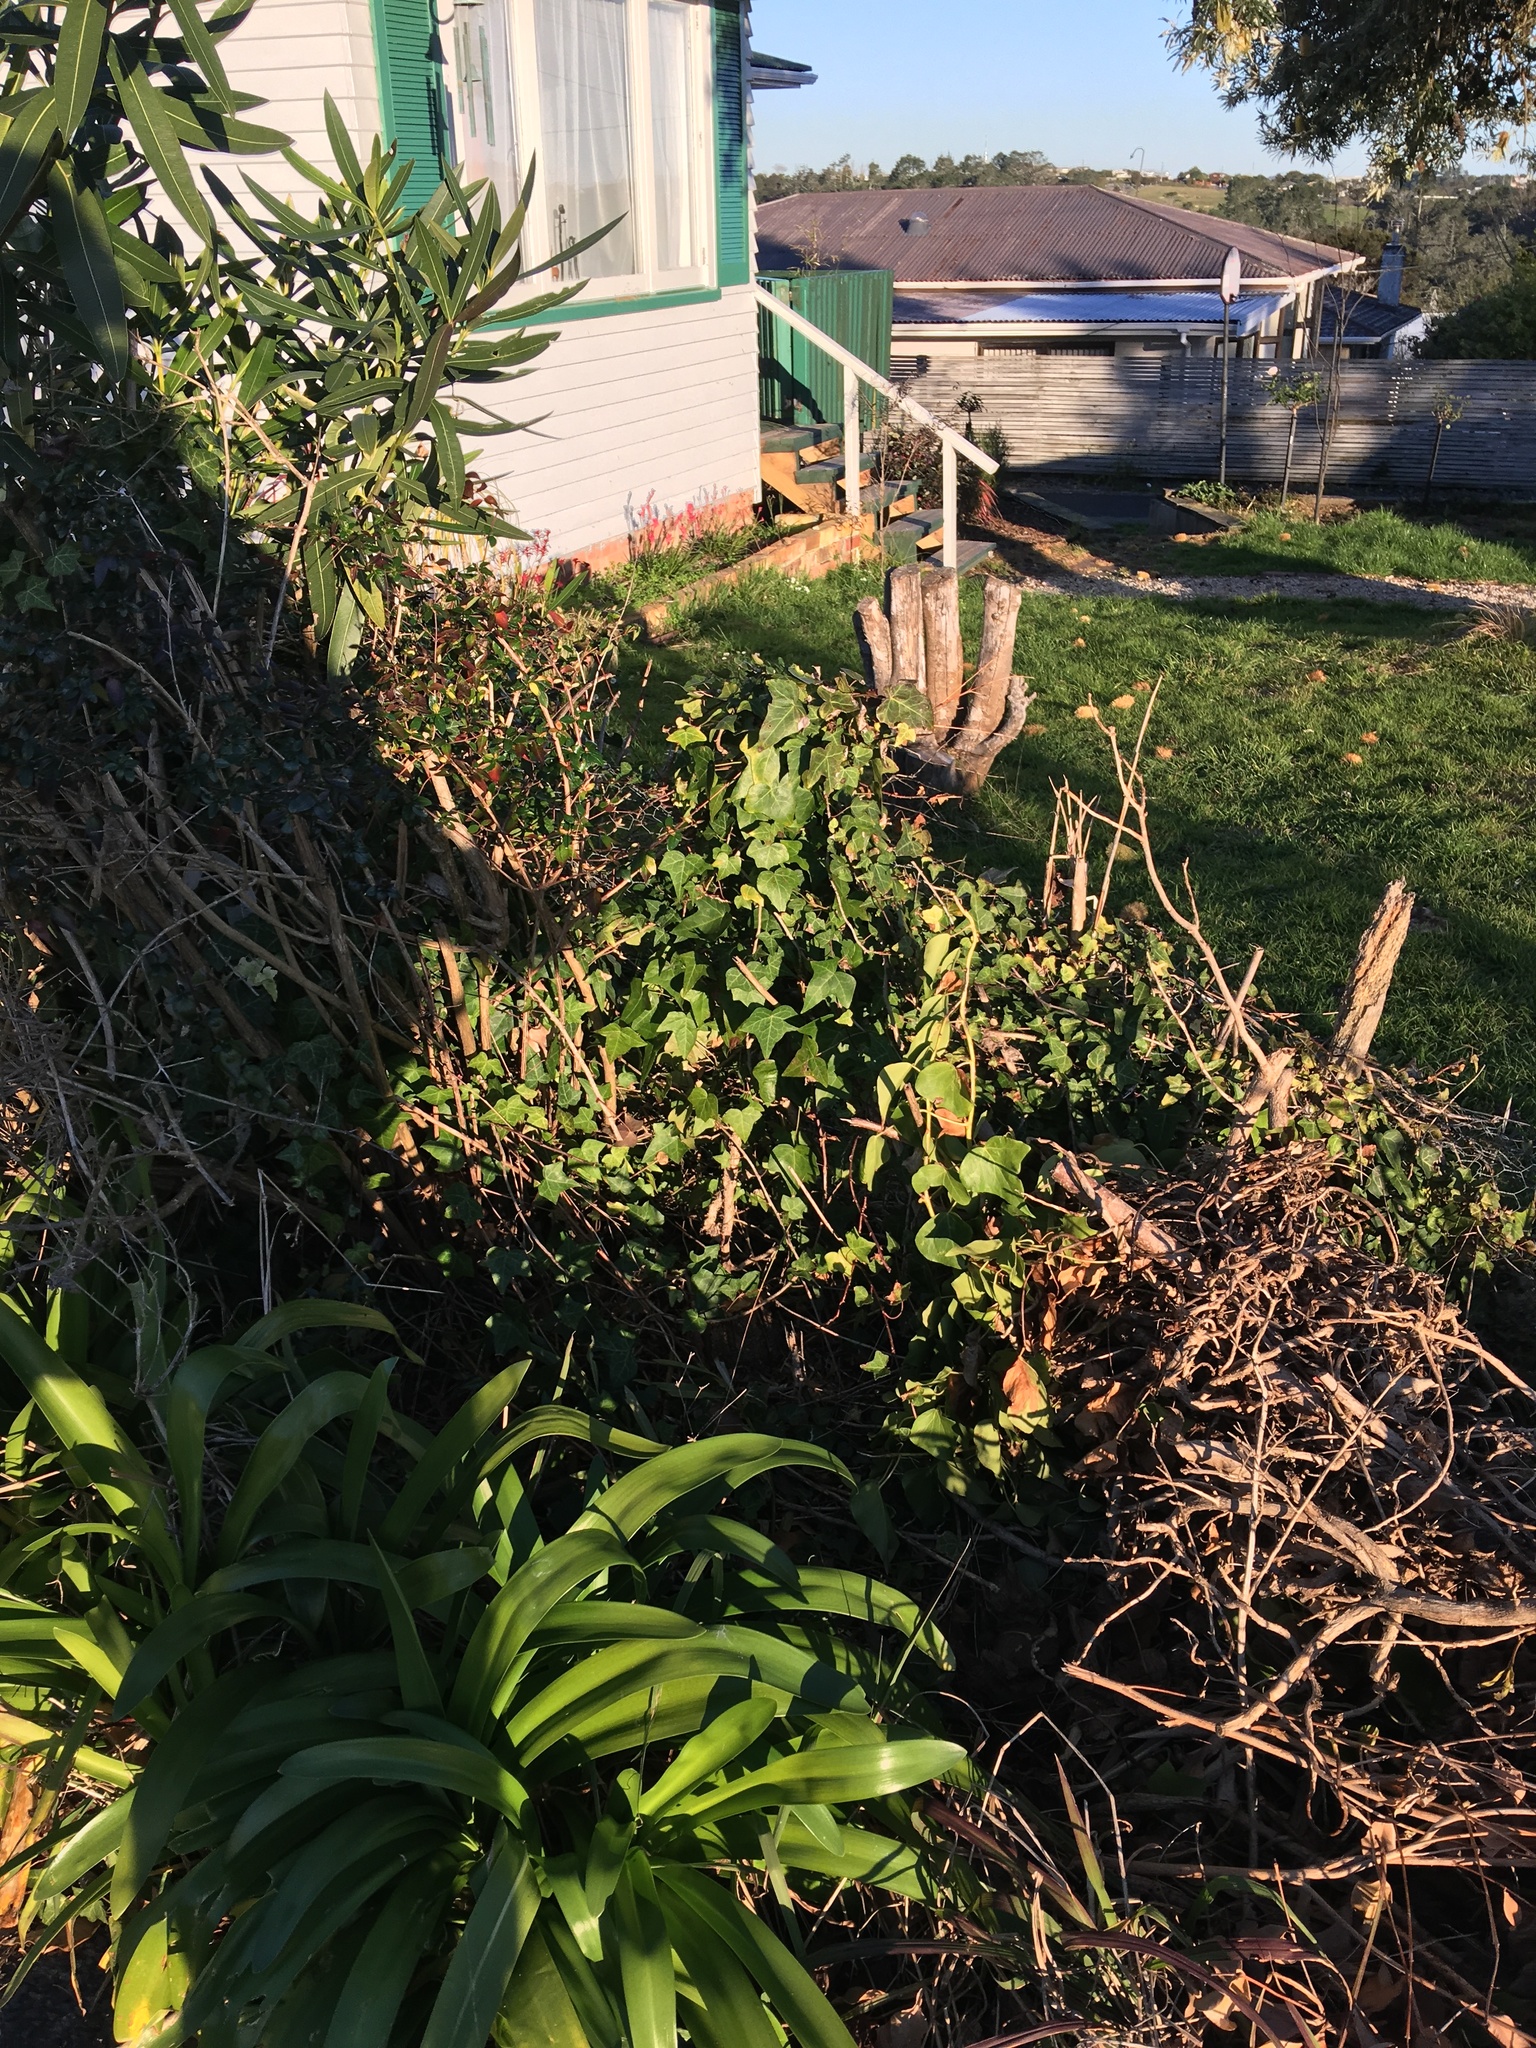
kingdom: Plantae
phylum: Tracheophyta
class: Magnoliopsida
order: Apiales
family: Araliaceae
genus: Hedera
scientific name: Hedera helix
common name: Ivy
